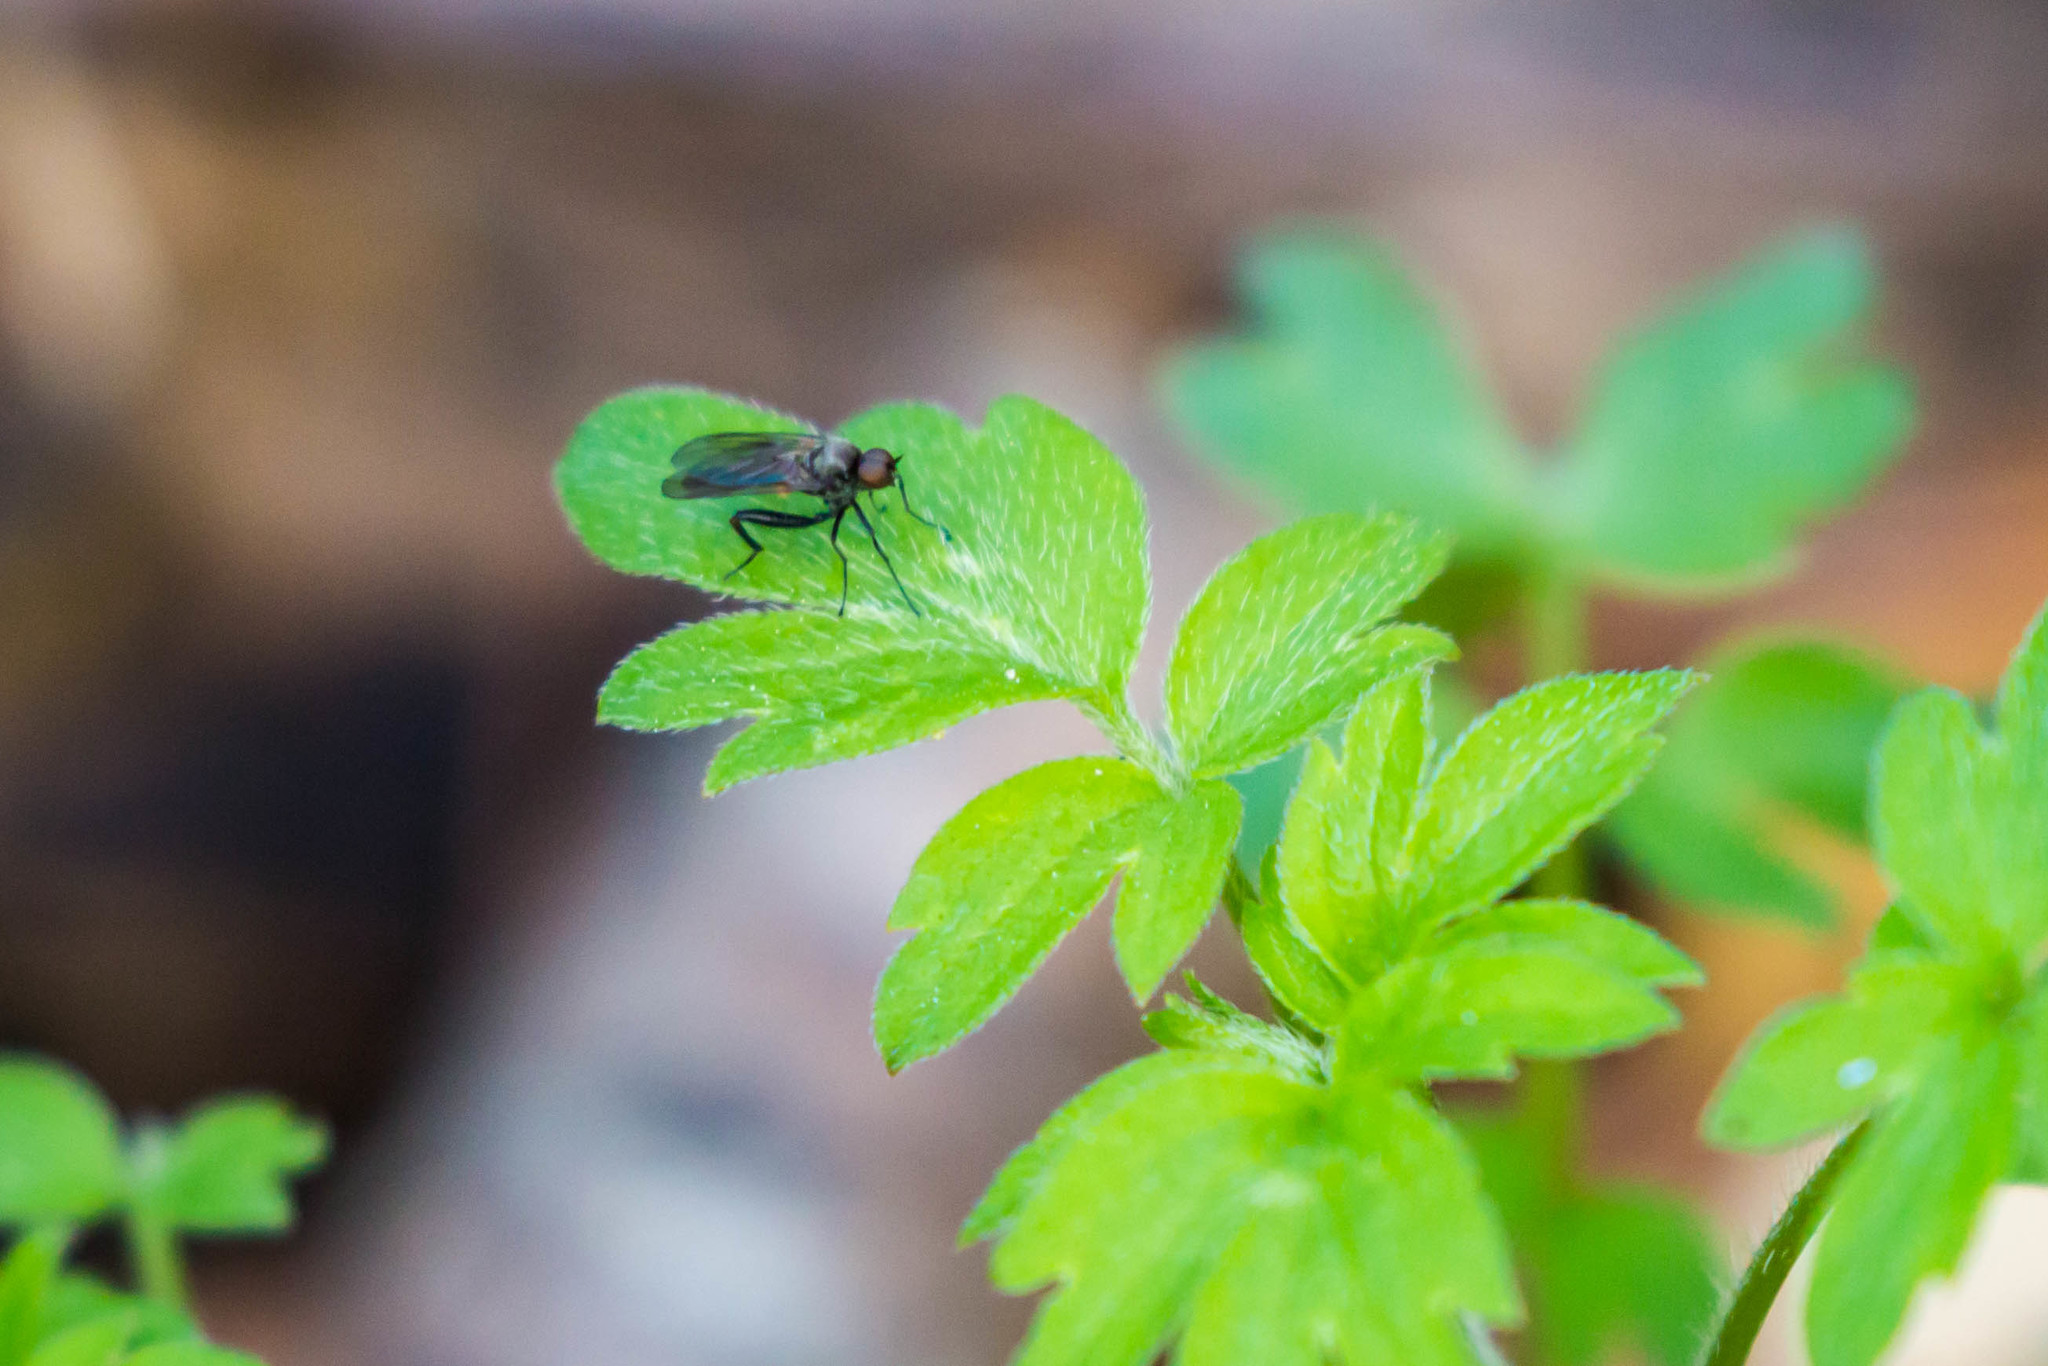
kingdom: Animalia
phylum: Arthropoda
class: Insecta
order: Diptera
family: Hybotidae
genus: Hoplocyrtoma
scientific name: Hoplocyrtoma femorata
